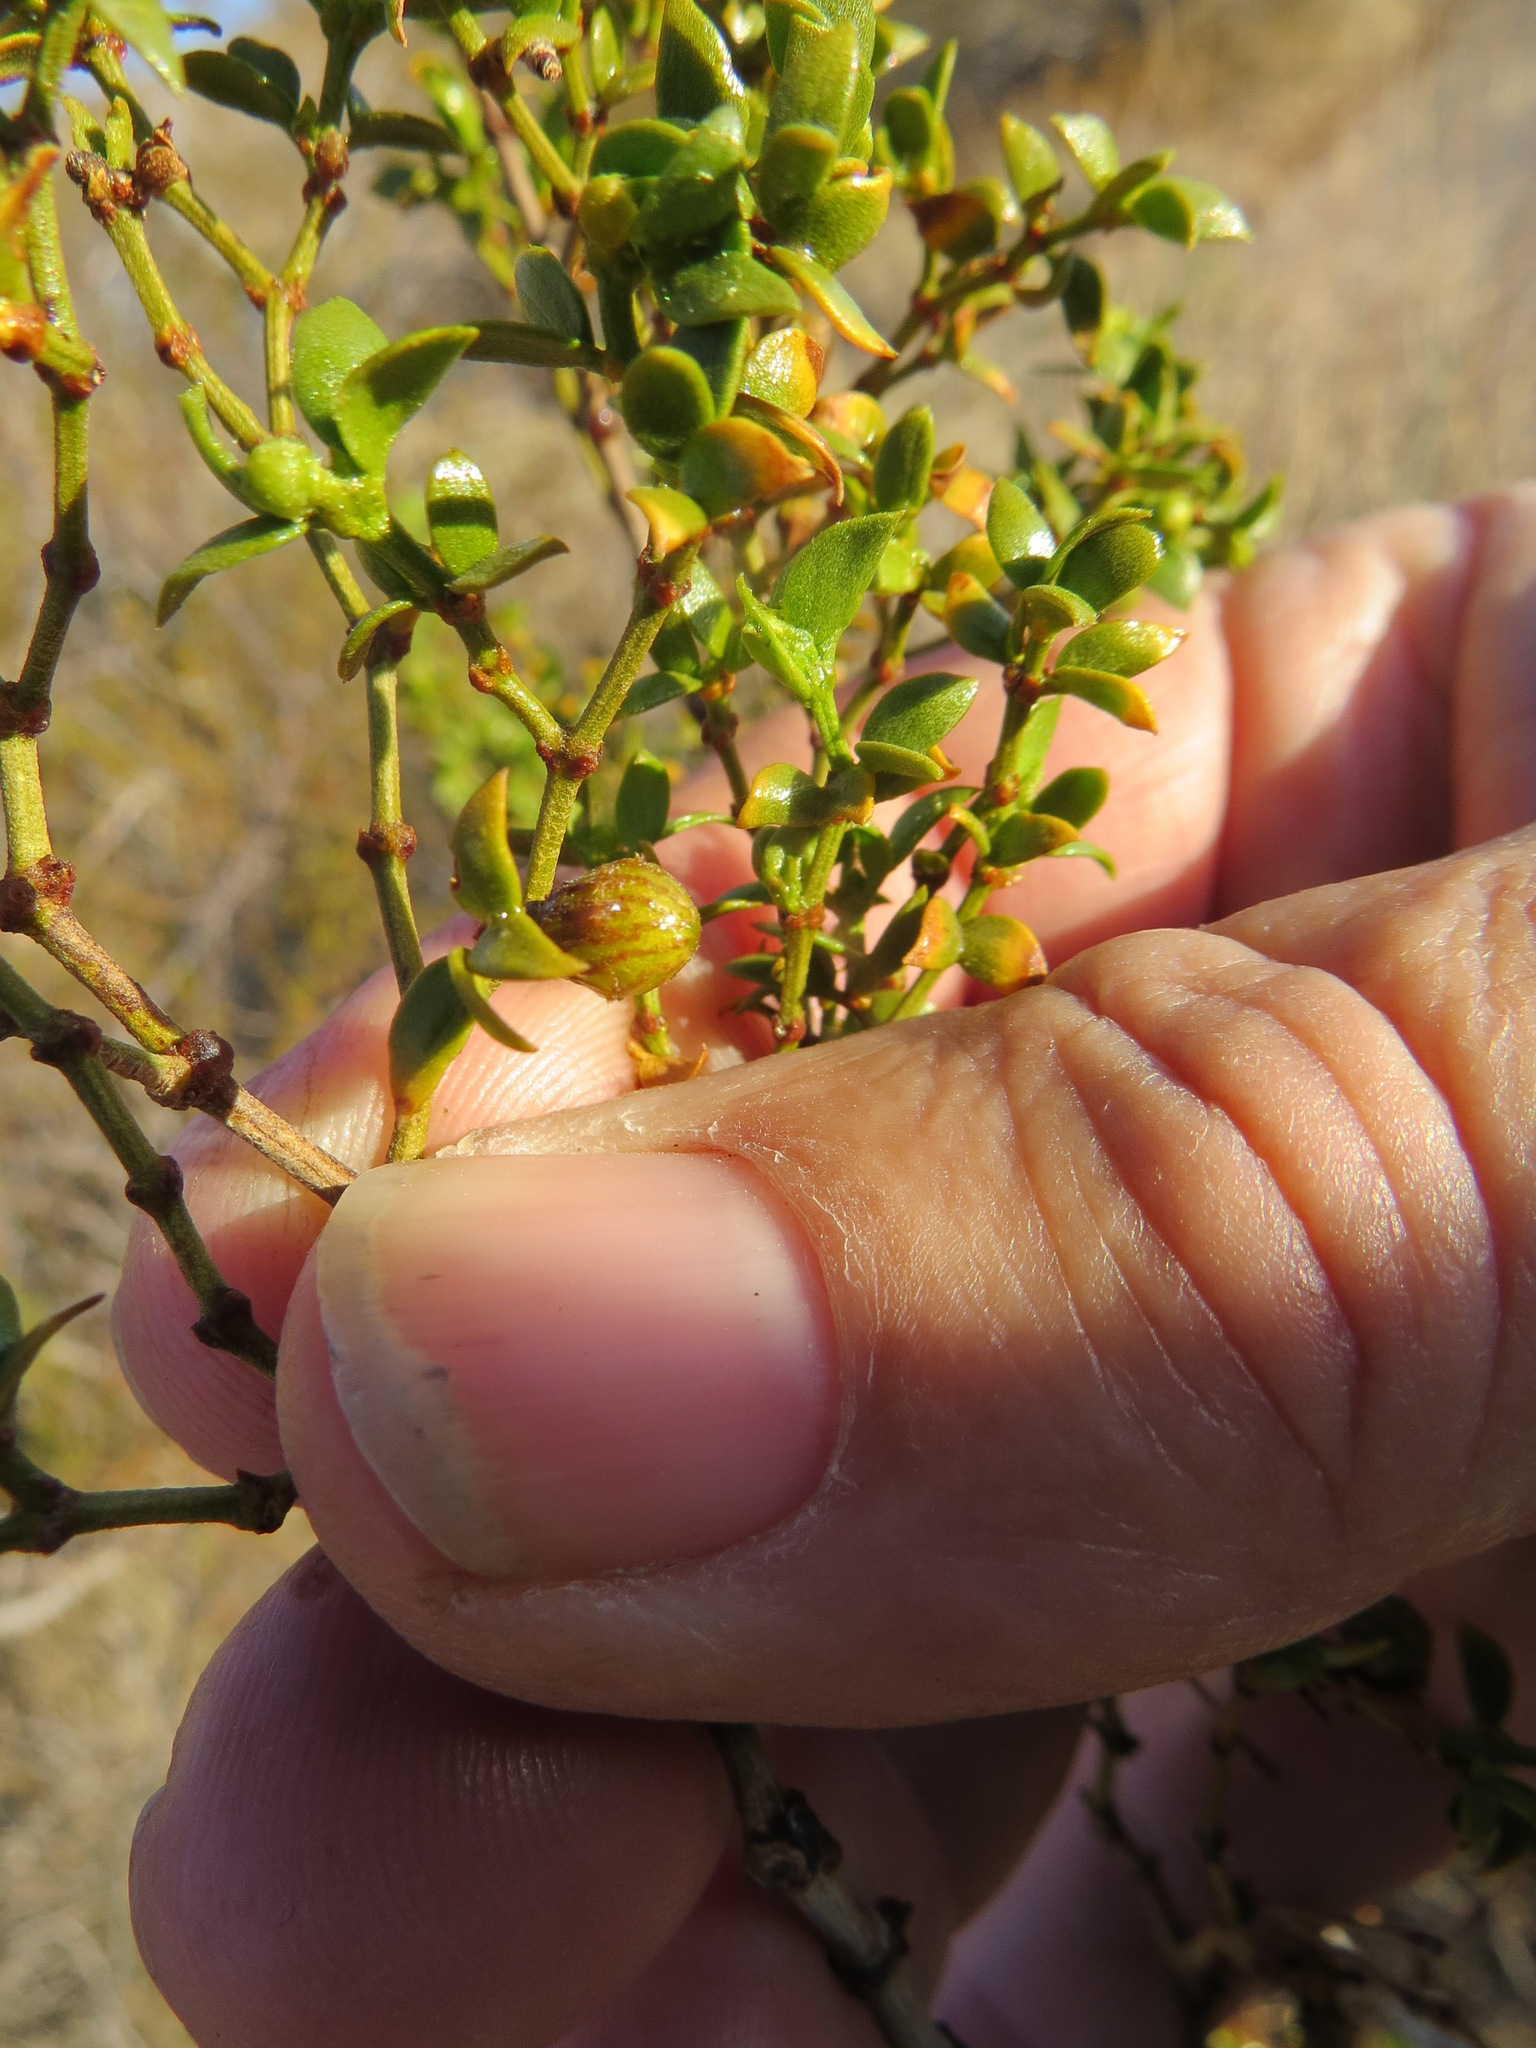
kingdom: Animalia
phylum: Arthropoda
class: Insecta
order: Diptera
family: Cecidomyiidae
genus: Asphondylia
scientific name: Asphondylia resinosa
